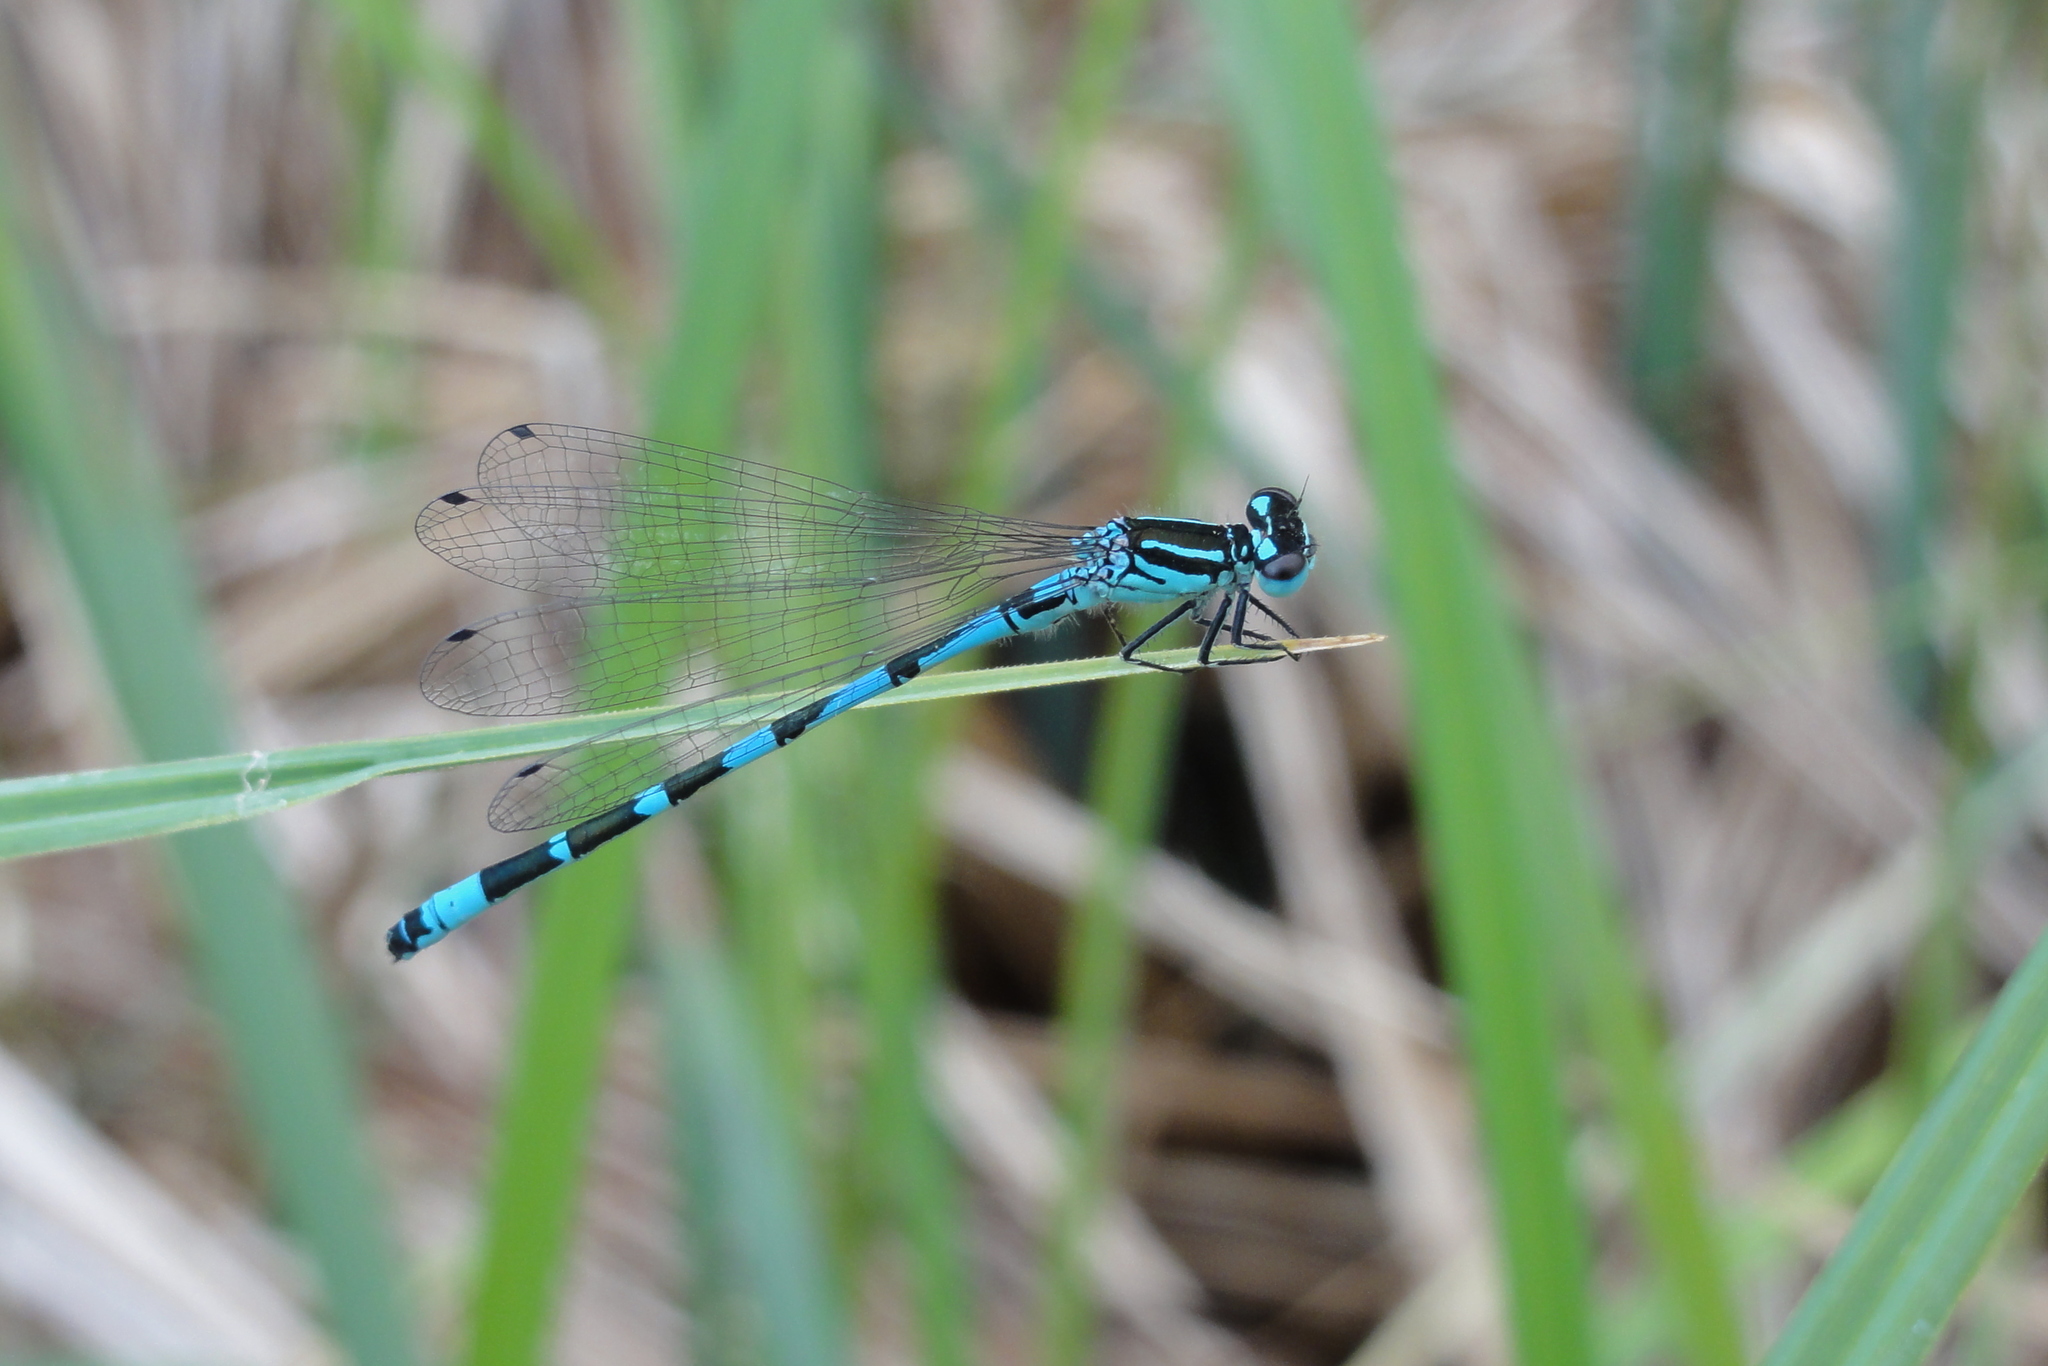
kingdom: Animalia
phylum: Arthropoda
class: Insecta
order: Odonata
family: Coenagrionidae
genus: Coenagrion
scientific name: Coenagrion ornatum
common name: Ornate bluet
